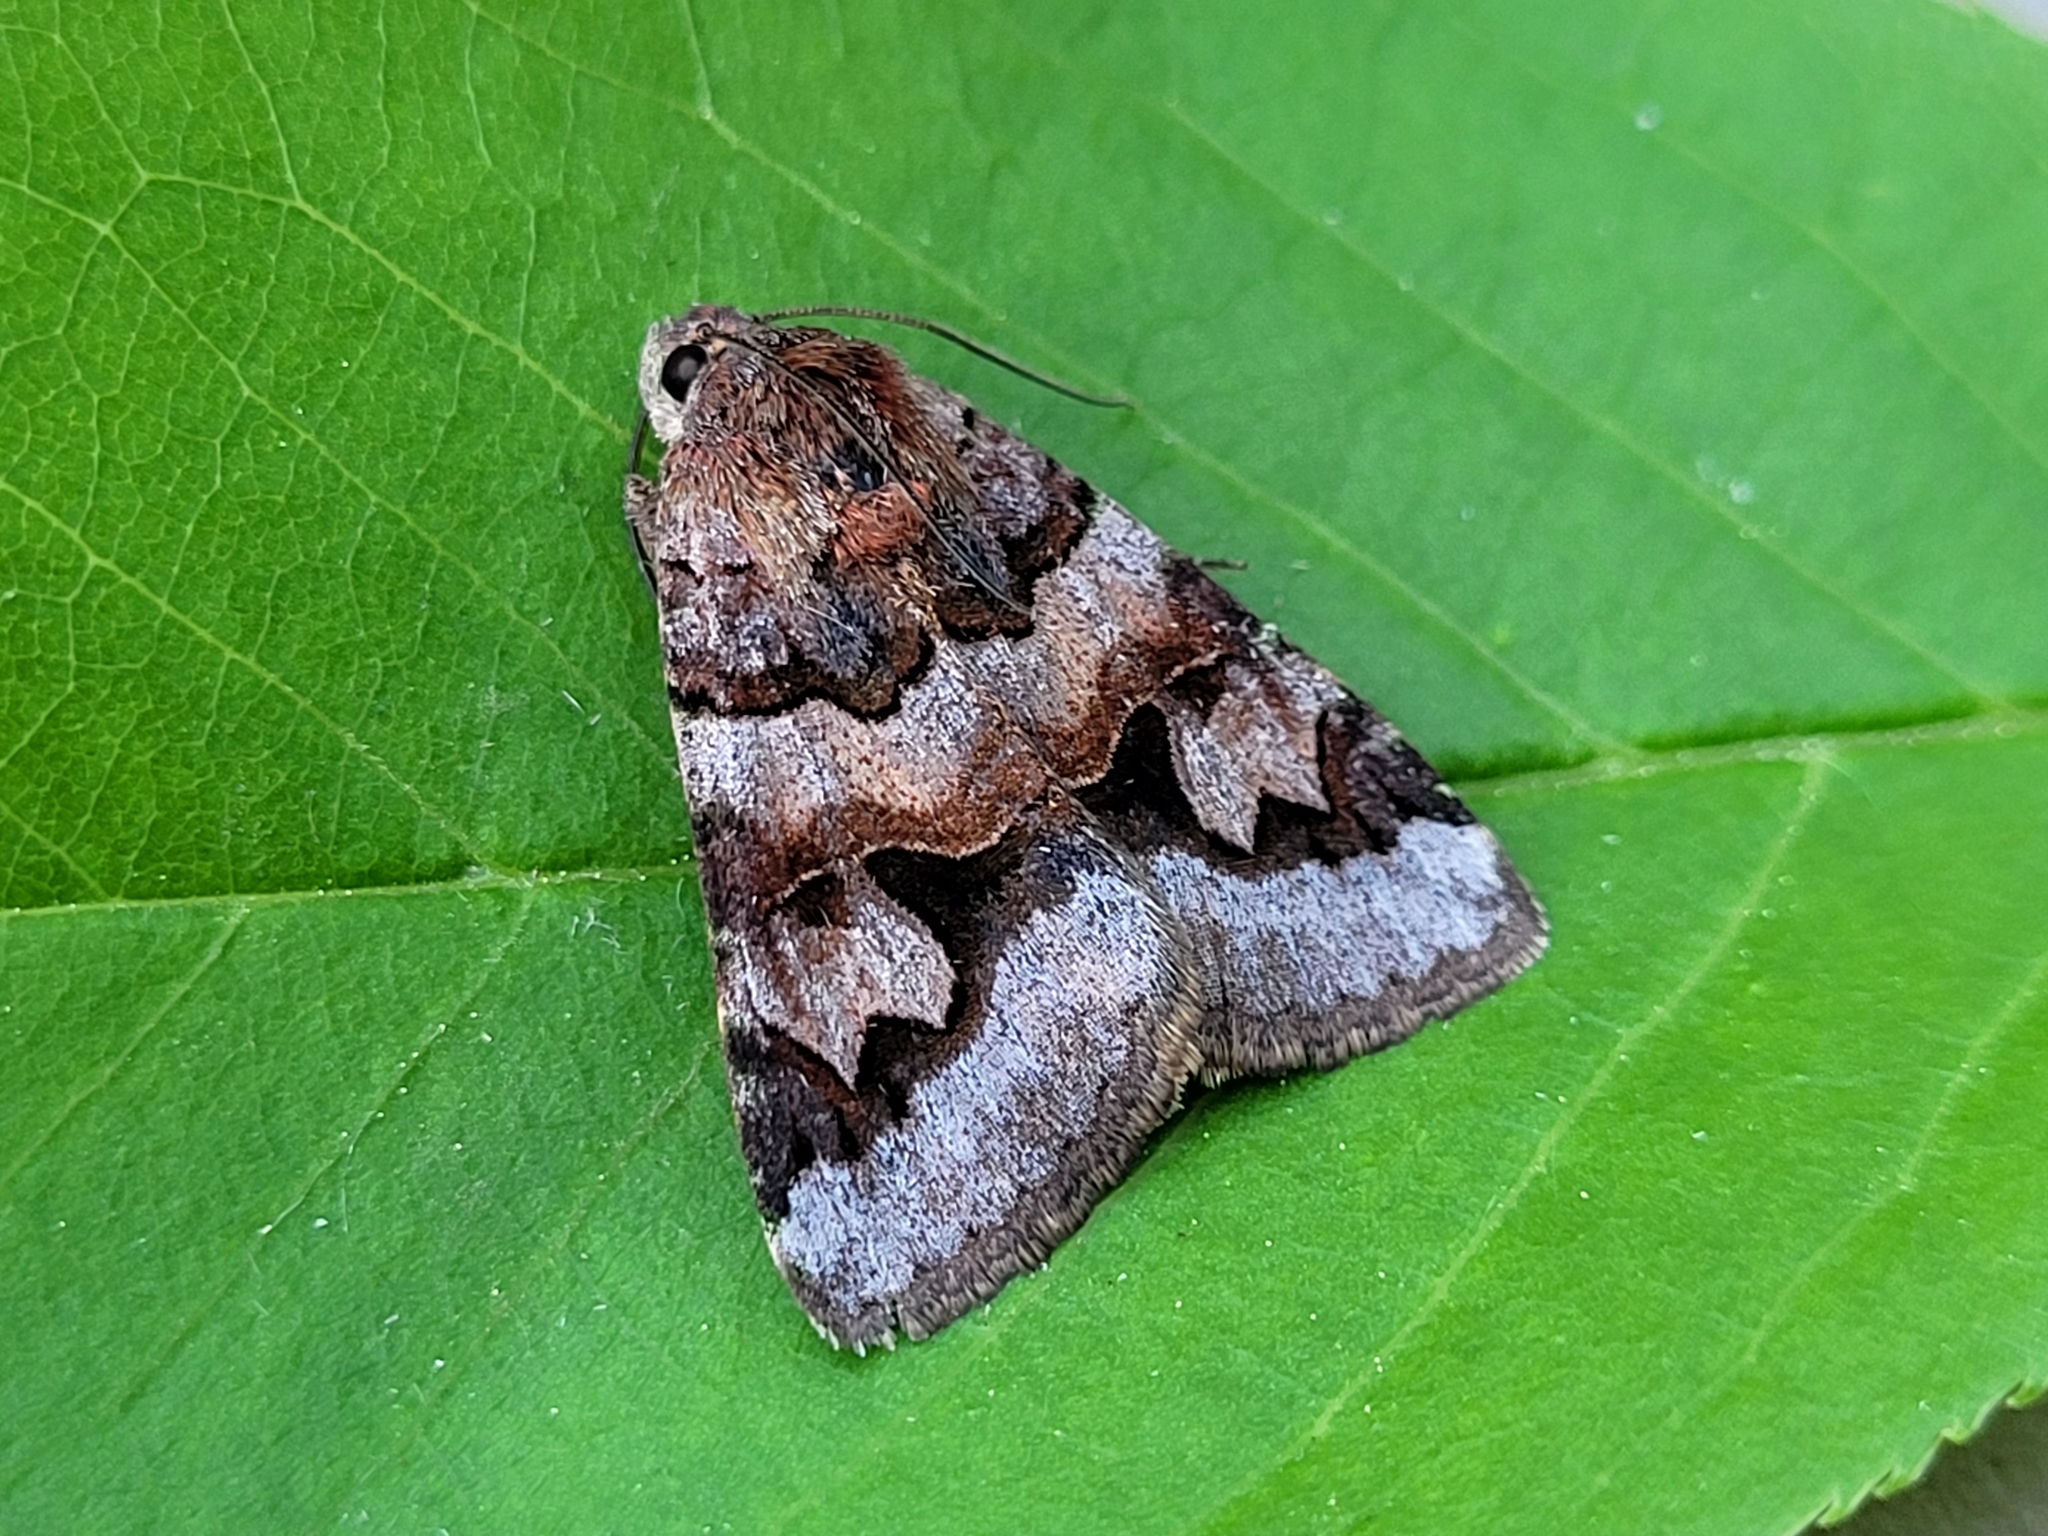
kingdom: Animalia
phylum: Arthropoda
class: Insecta
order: Lepidoptera
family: Erebidae
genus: Drasteria
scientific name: Drasteria adumbrata
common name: Shadowy arches
